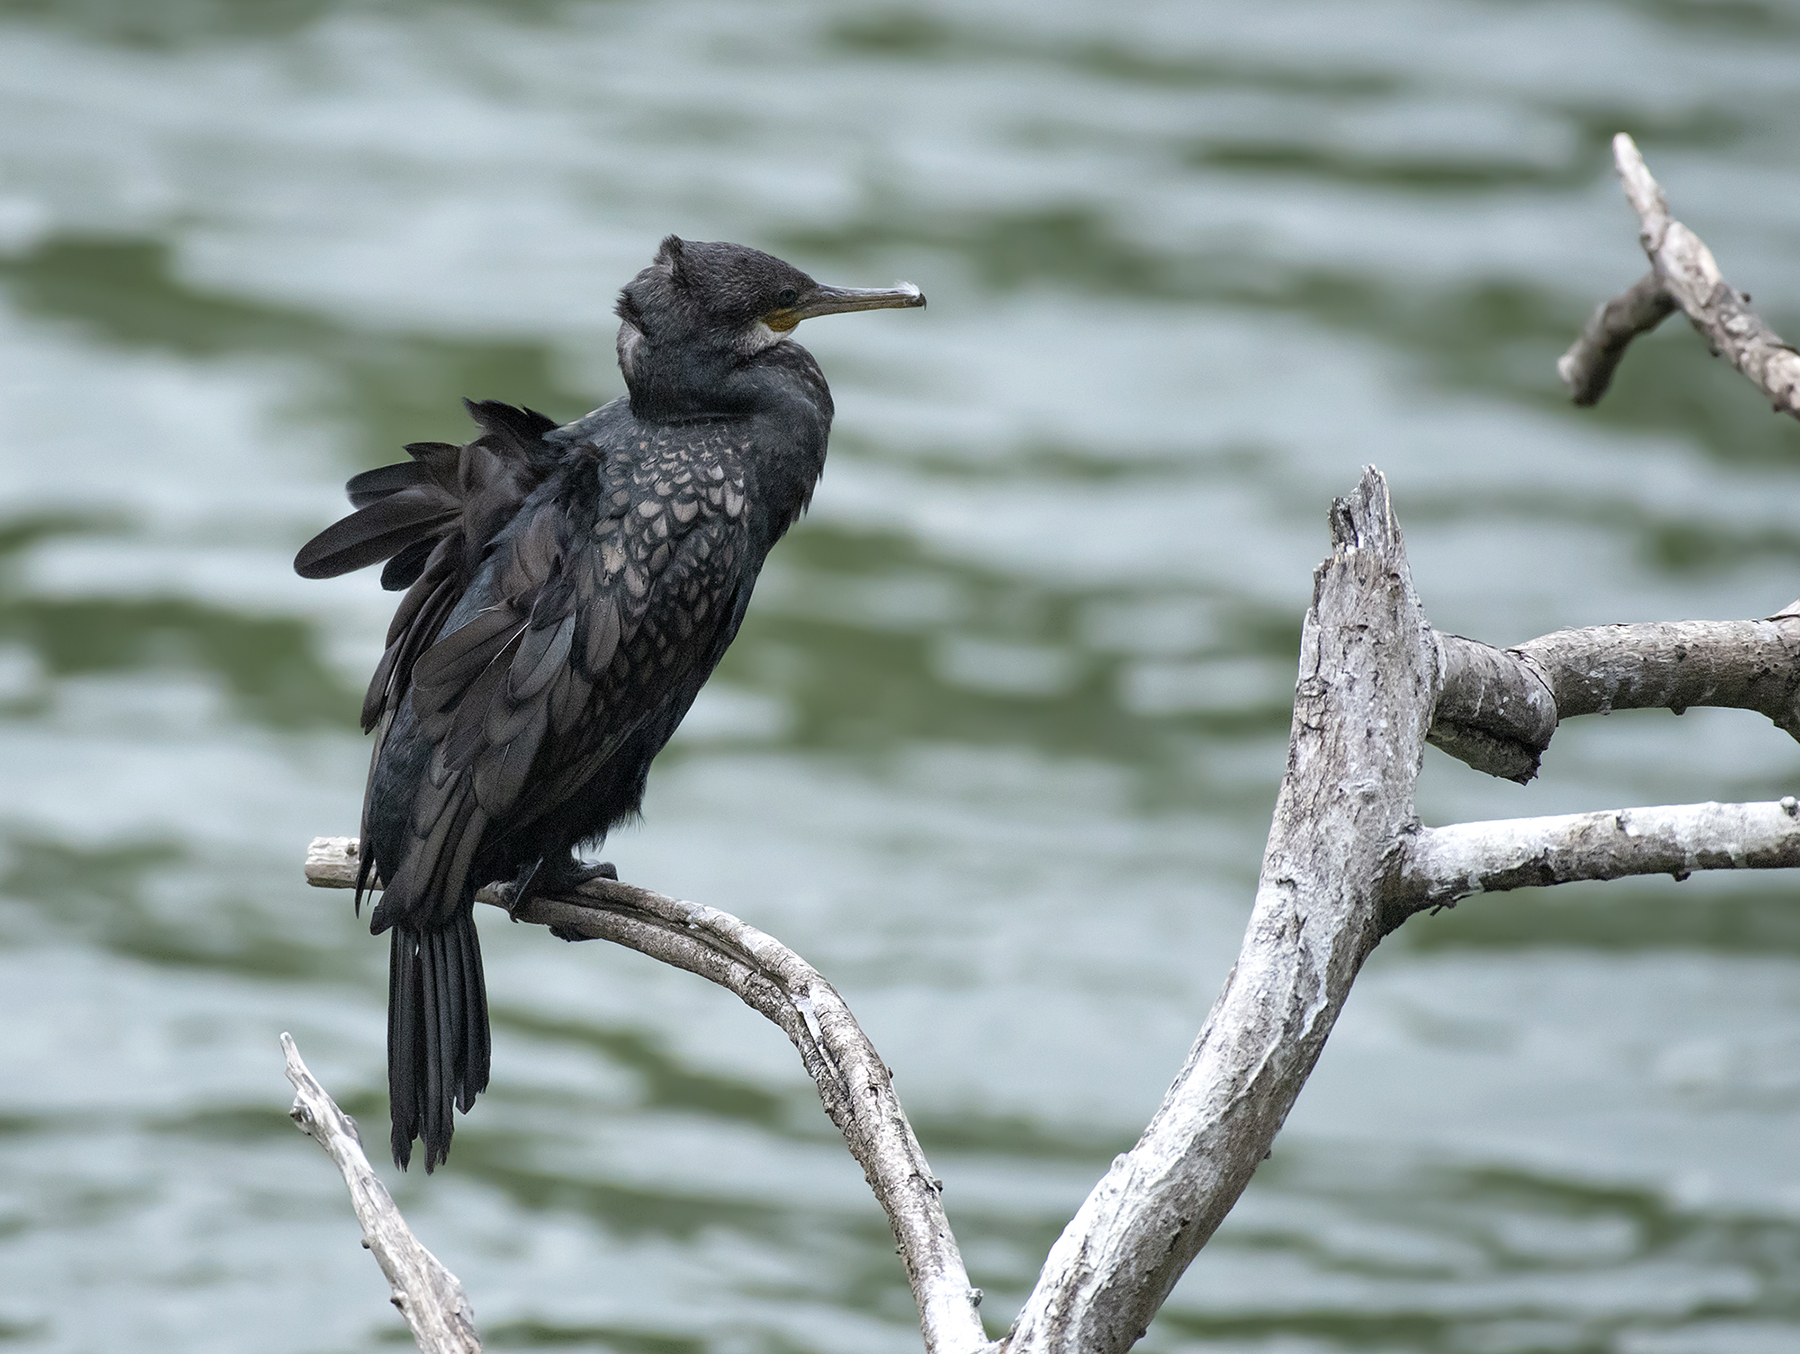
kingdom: Animalia
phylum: Chordata
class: Aves
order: Suliformes
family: Phalacrocoracidae
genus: Phalacrocorax
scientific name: Phalacrocorax fuscicollis
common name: Indian cormorant
